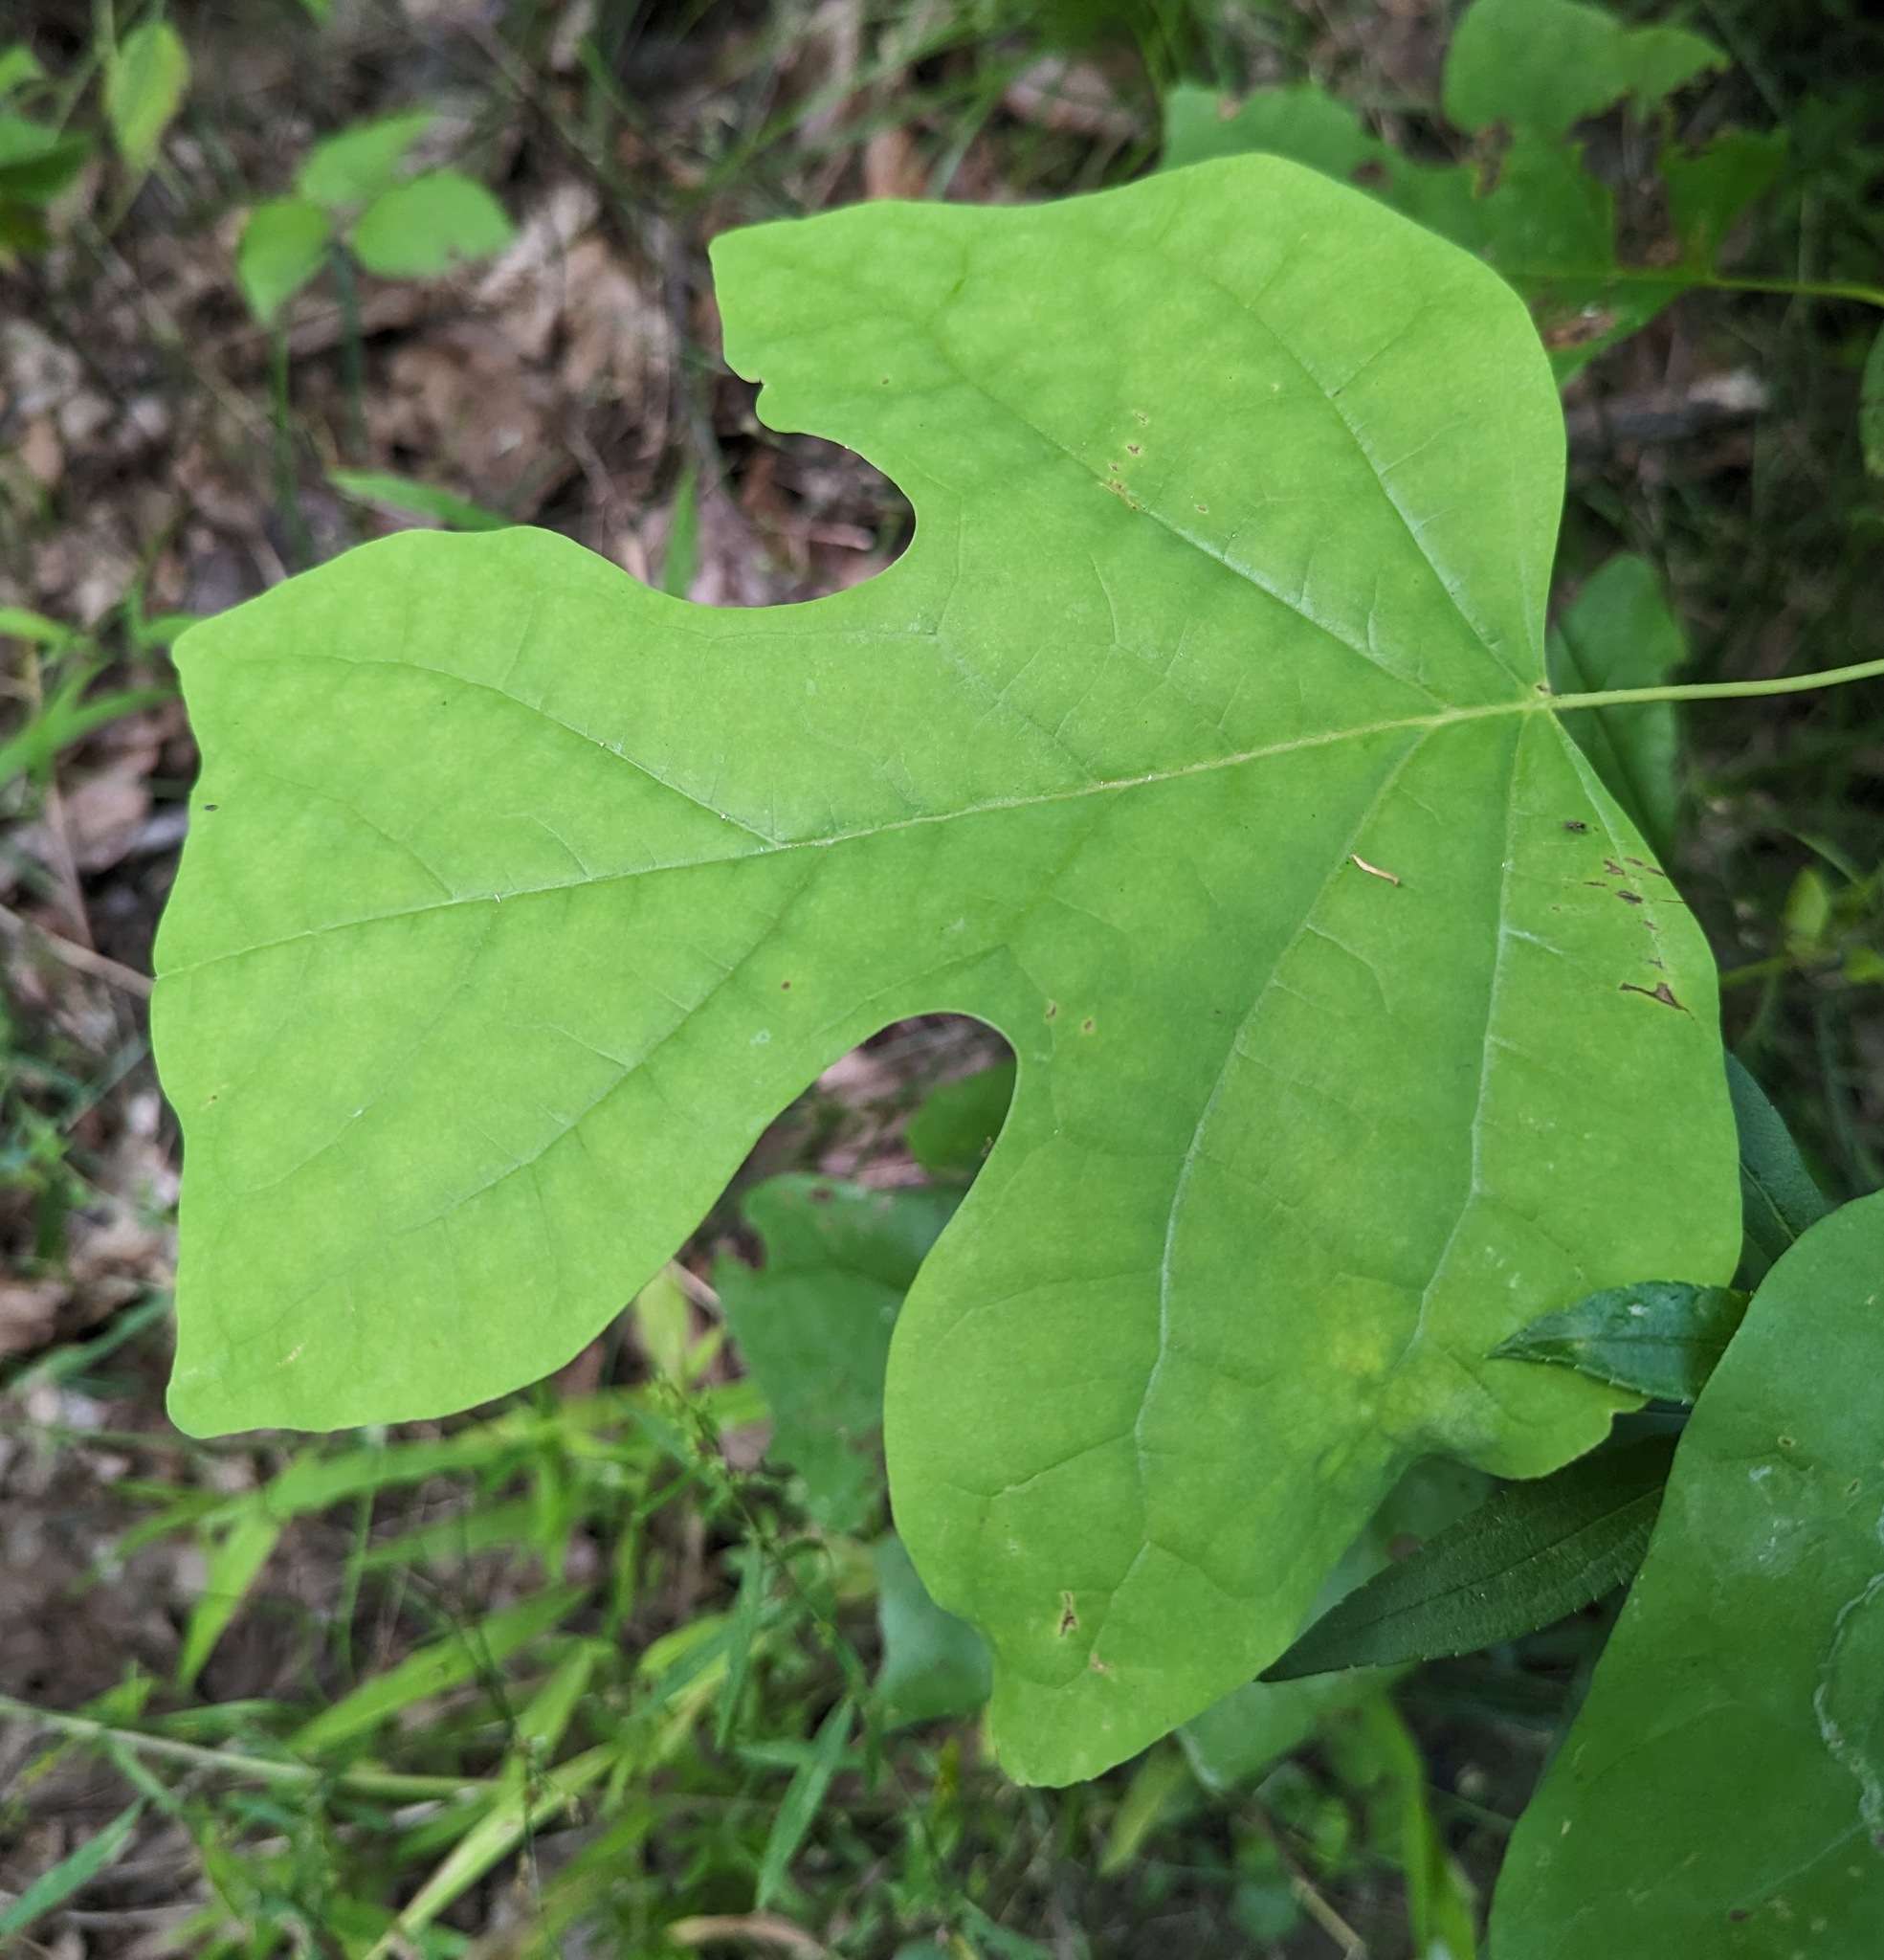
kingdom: Plantae
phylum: Tracheophyta
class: Magnoliopsida
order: Magnoliales
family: Magnoliaceae
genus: Liriodendron
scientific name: Liriodendron tulipifera
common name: Tulip tree
